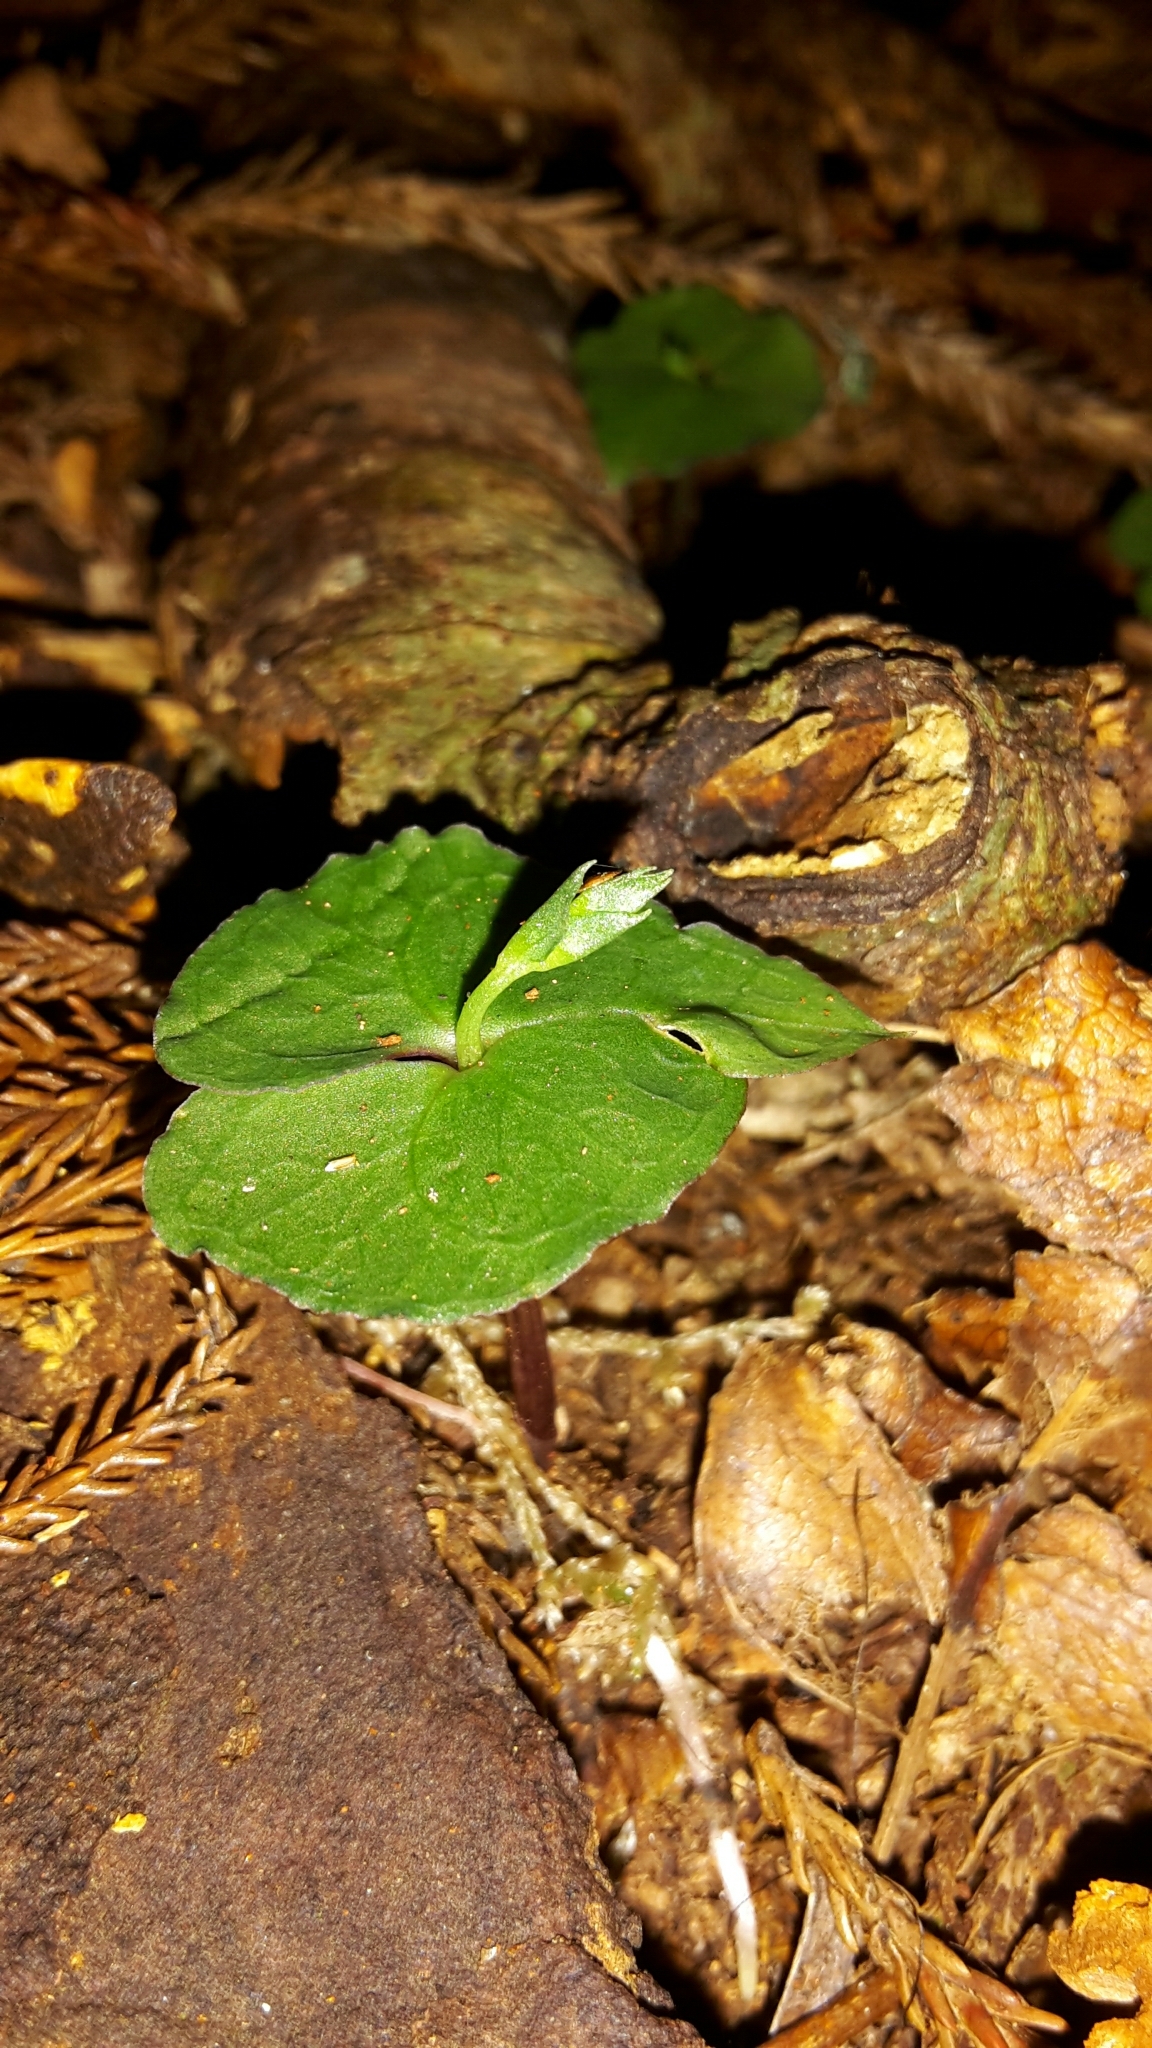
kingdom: Plantae
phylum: Tracheophyta
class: Liliopsida
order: Asparagales
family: Orchidaceae
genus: Acianthus
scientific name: Acianthus sinclairii
